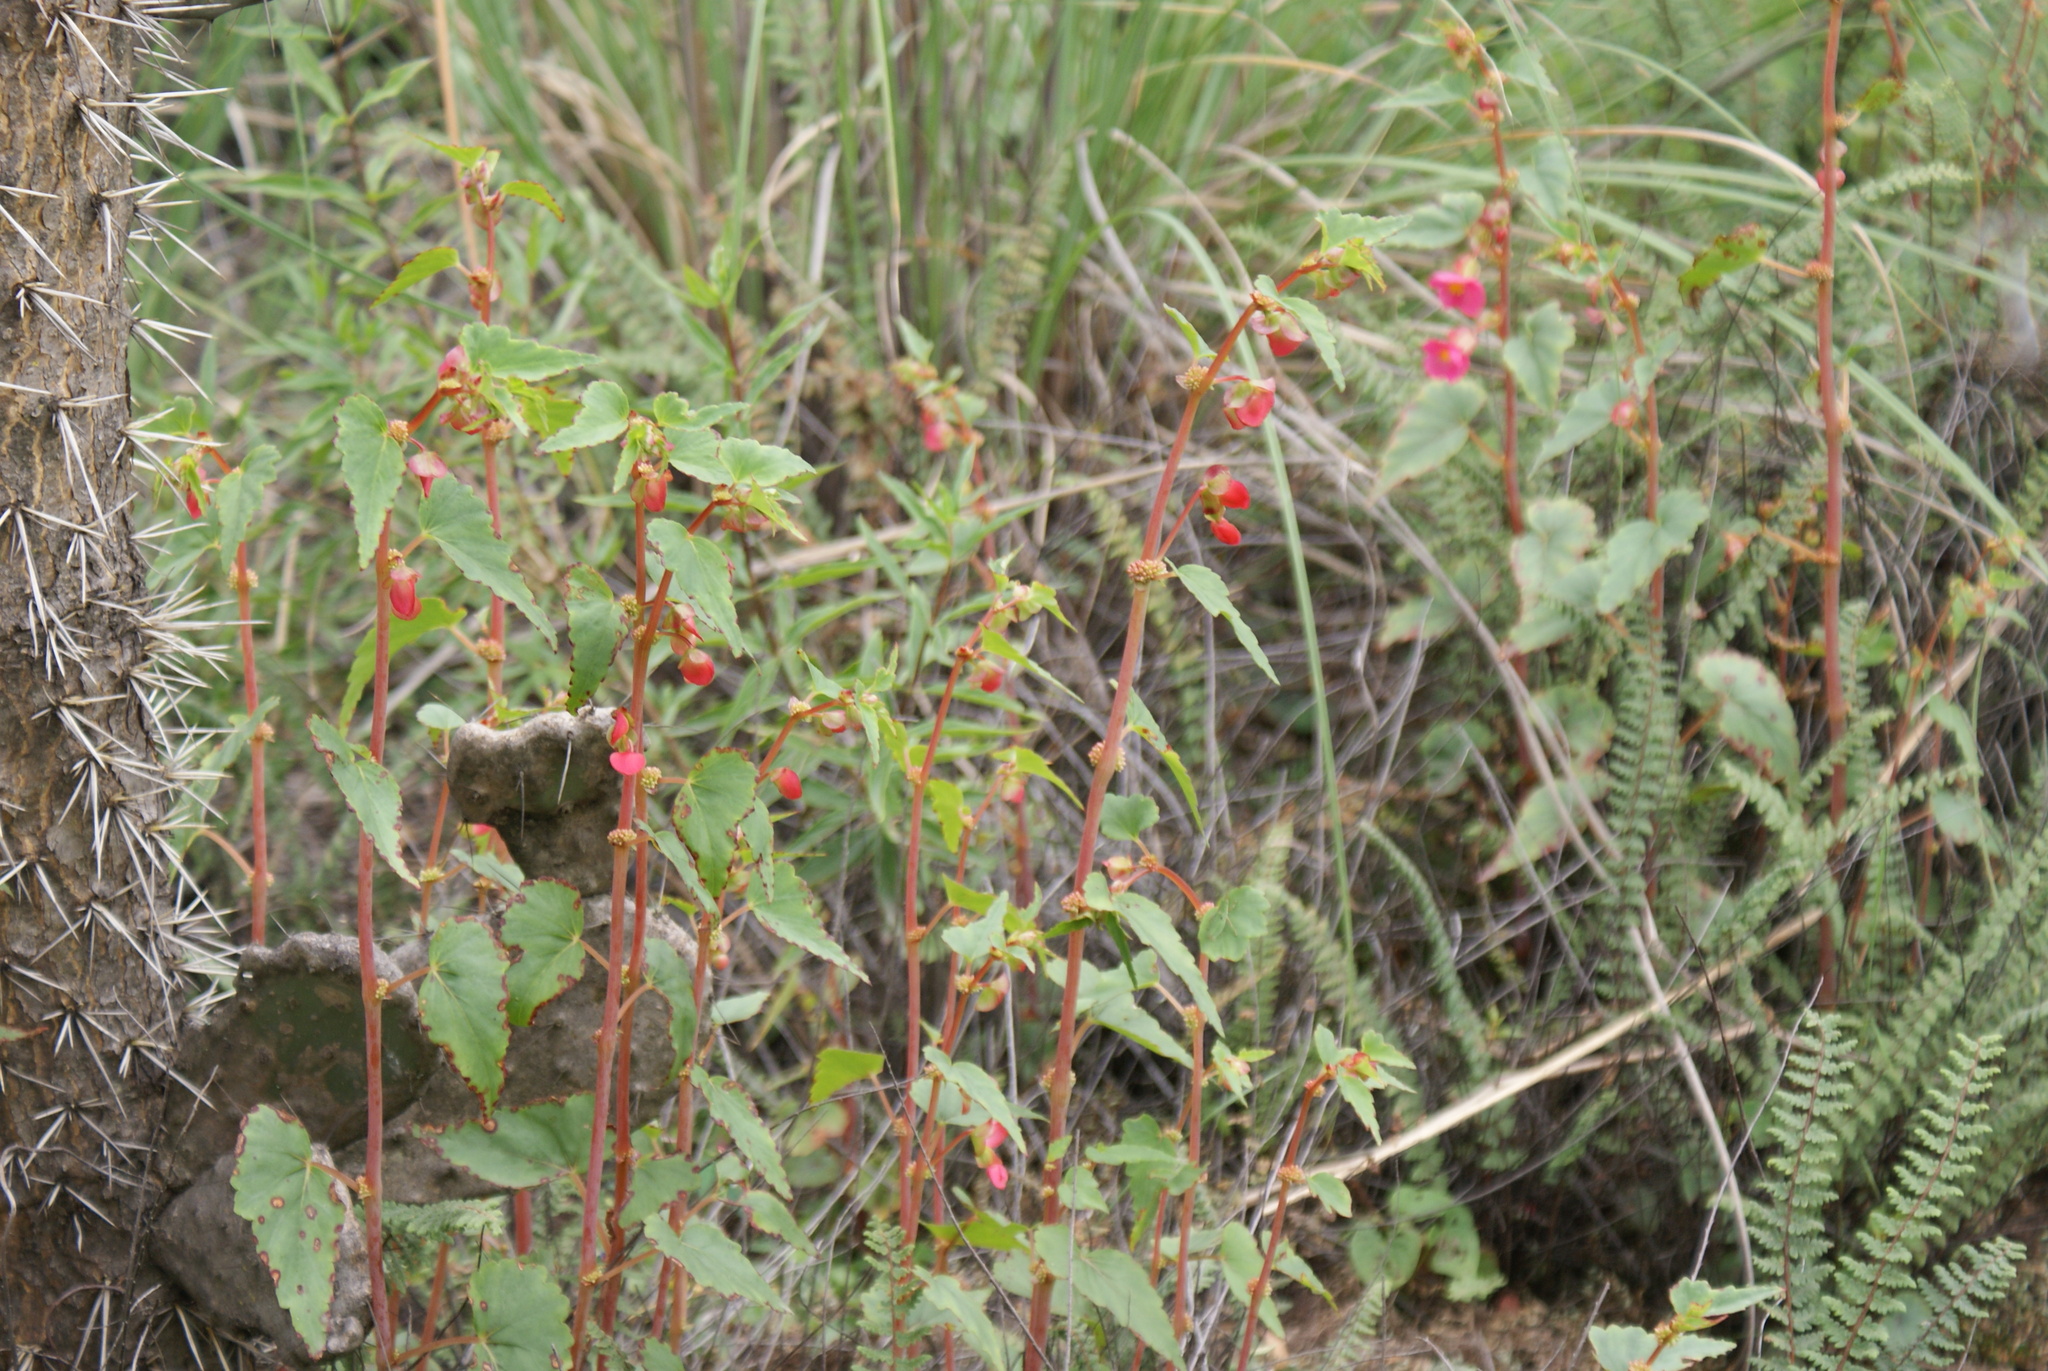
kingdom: Plantae
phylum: Tracheophyta
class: Magnoliopsida
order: Cucurbitales
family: Begoniaceae
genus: Begonia
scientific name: Begonia gracilis
